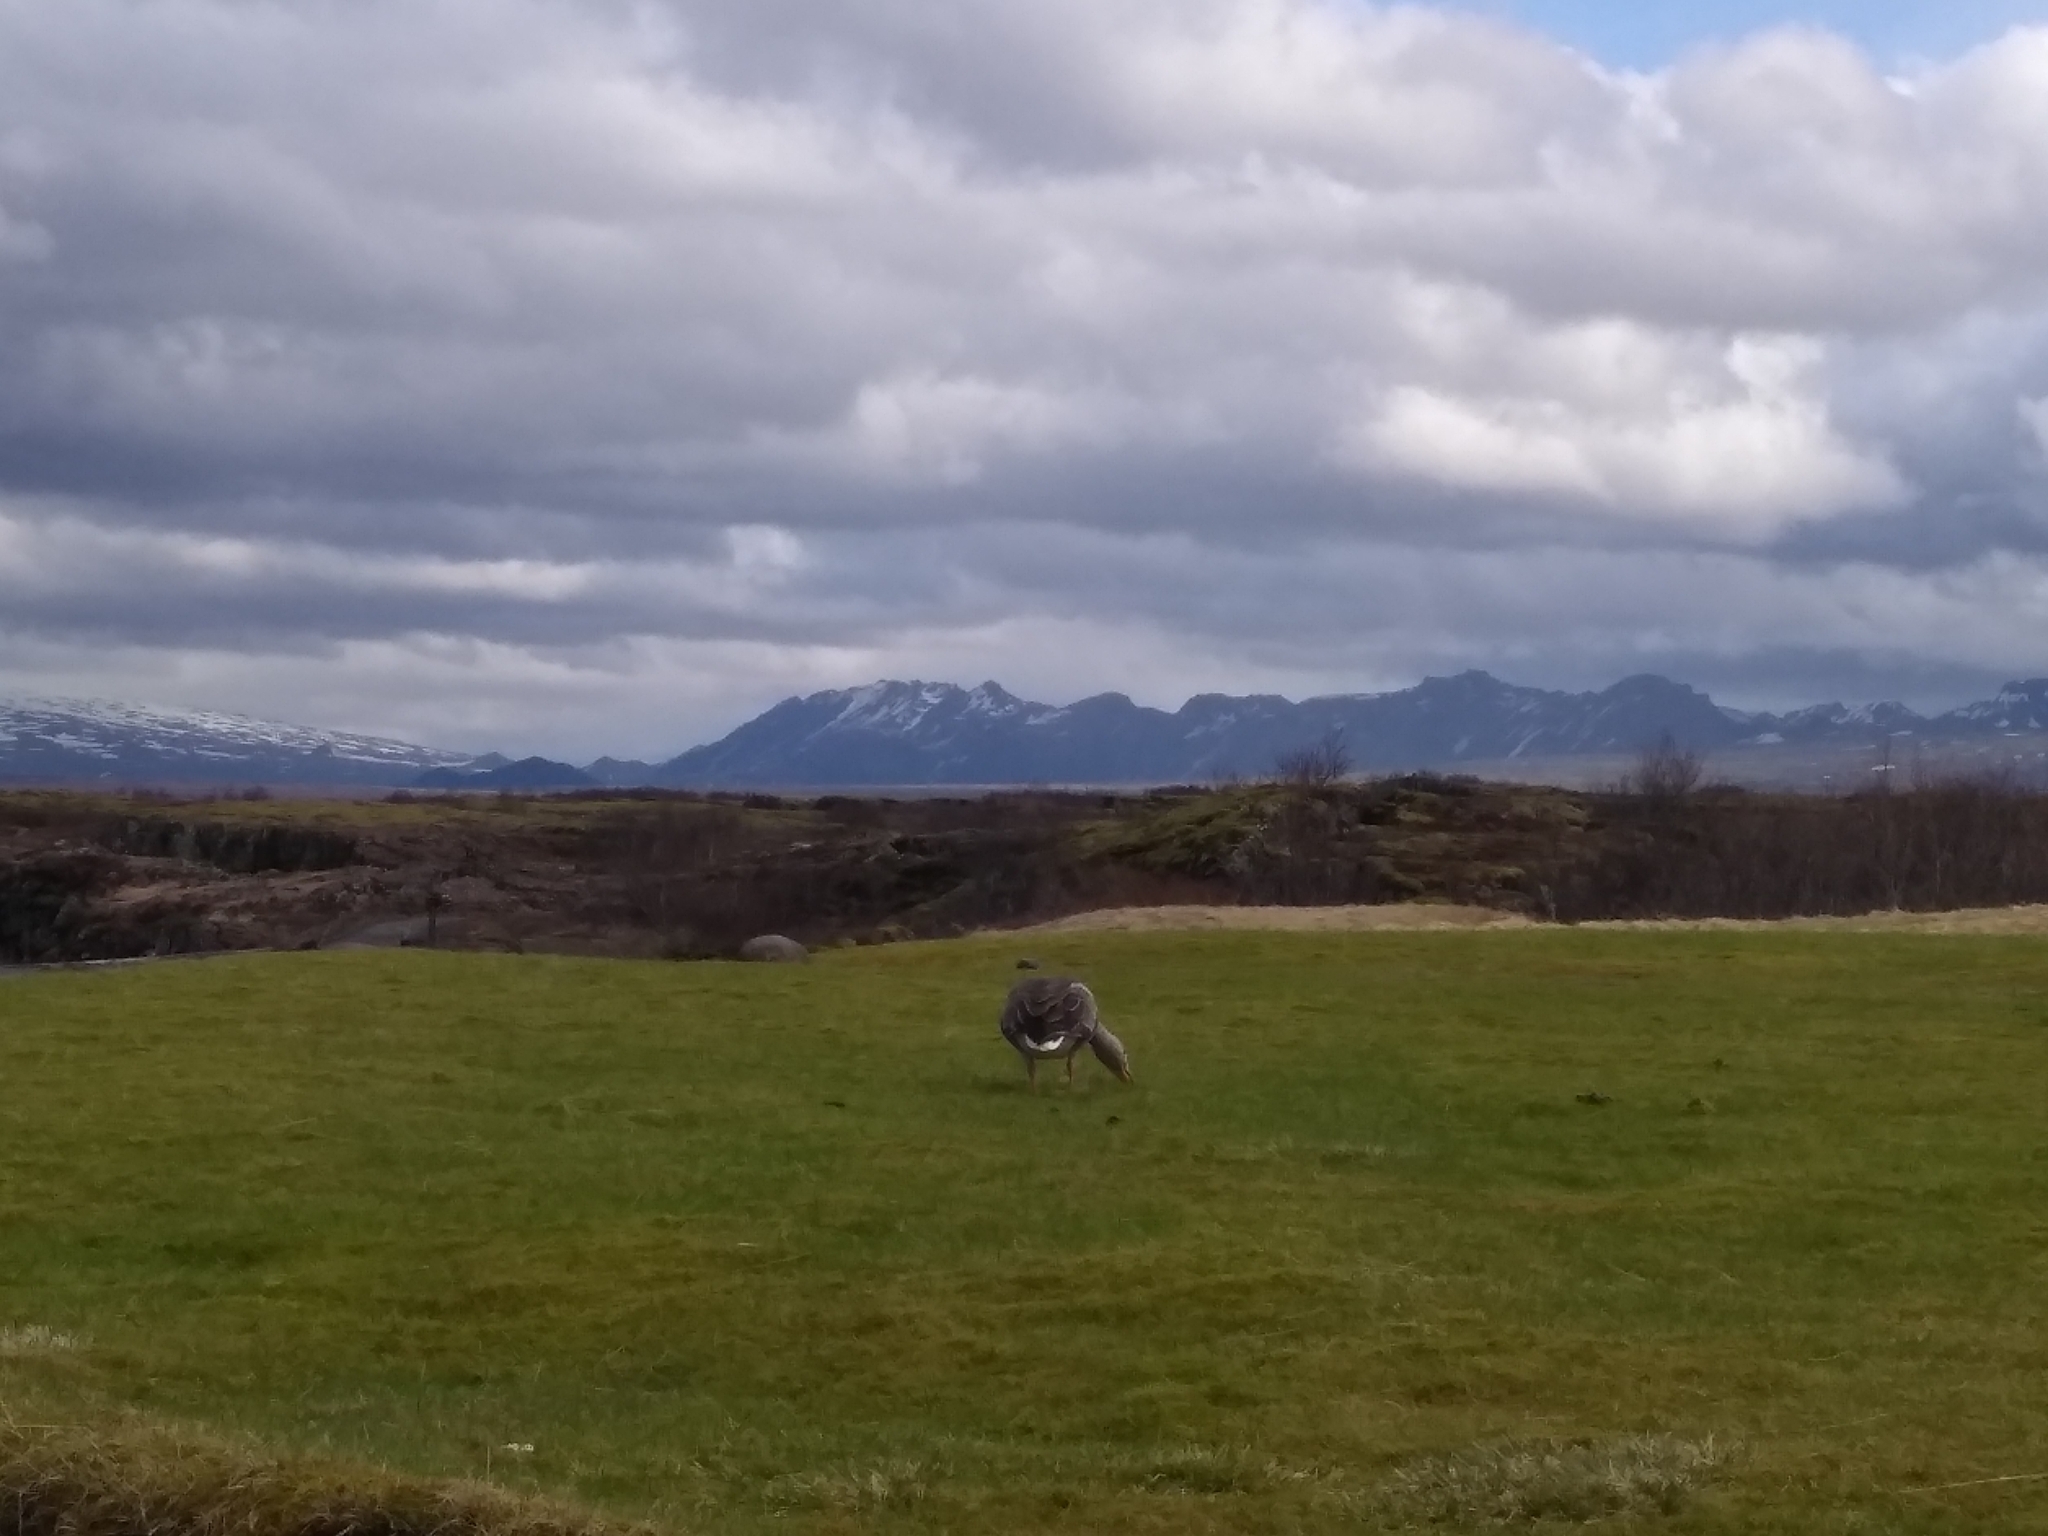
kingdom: Animalia
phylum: Chordata
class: Aves
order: Anseriformes
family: Anatidae
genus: Anser
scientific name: Anser anser
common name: Greylag goose
